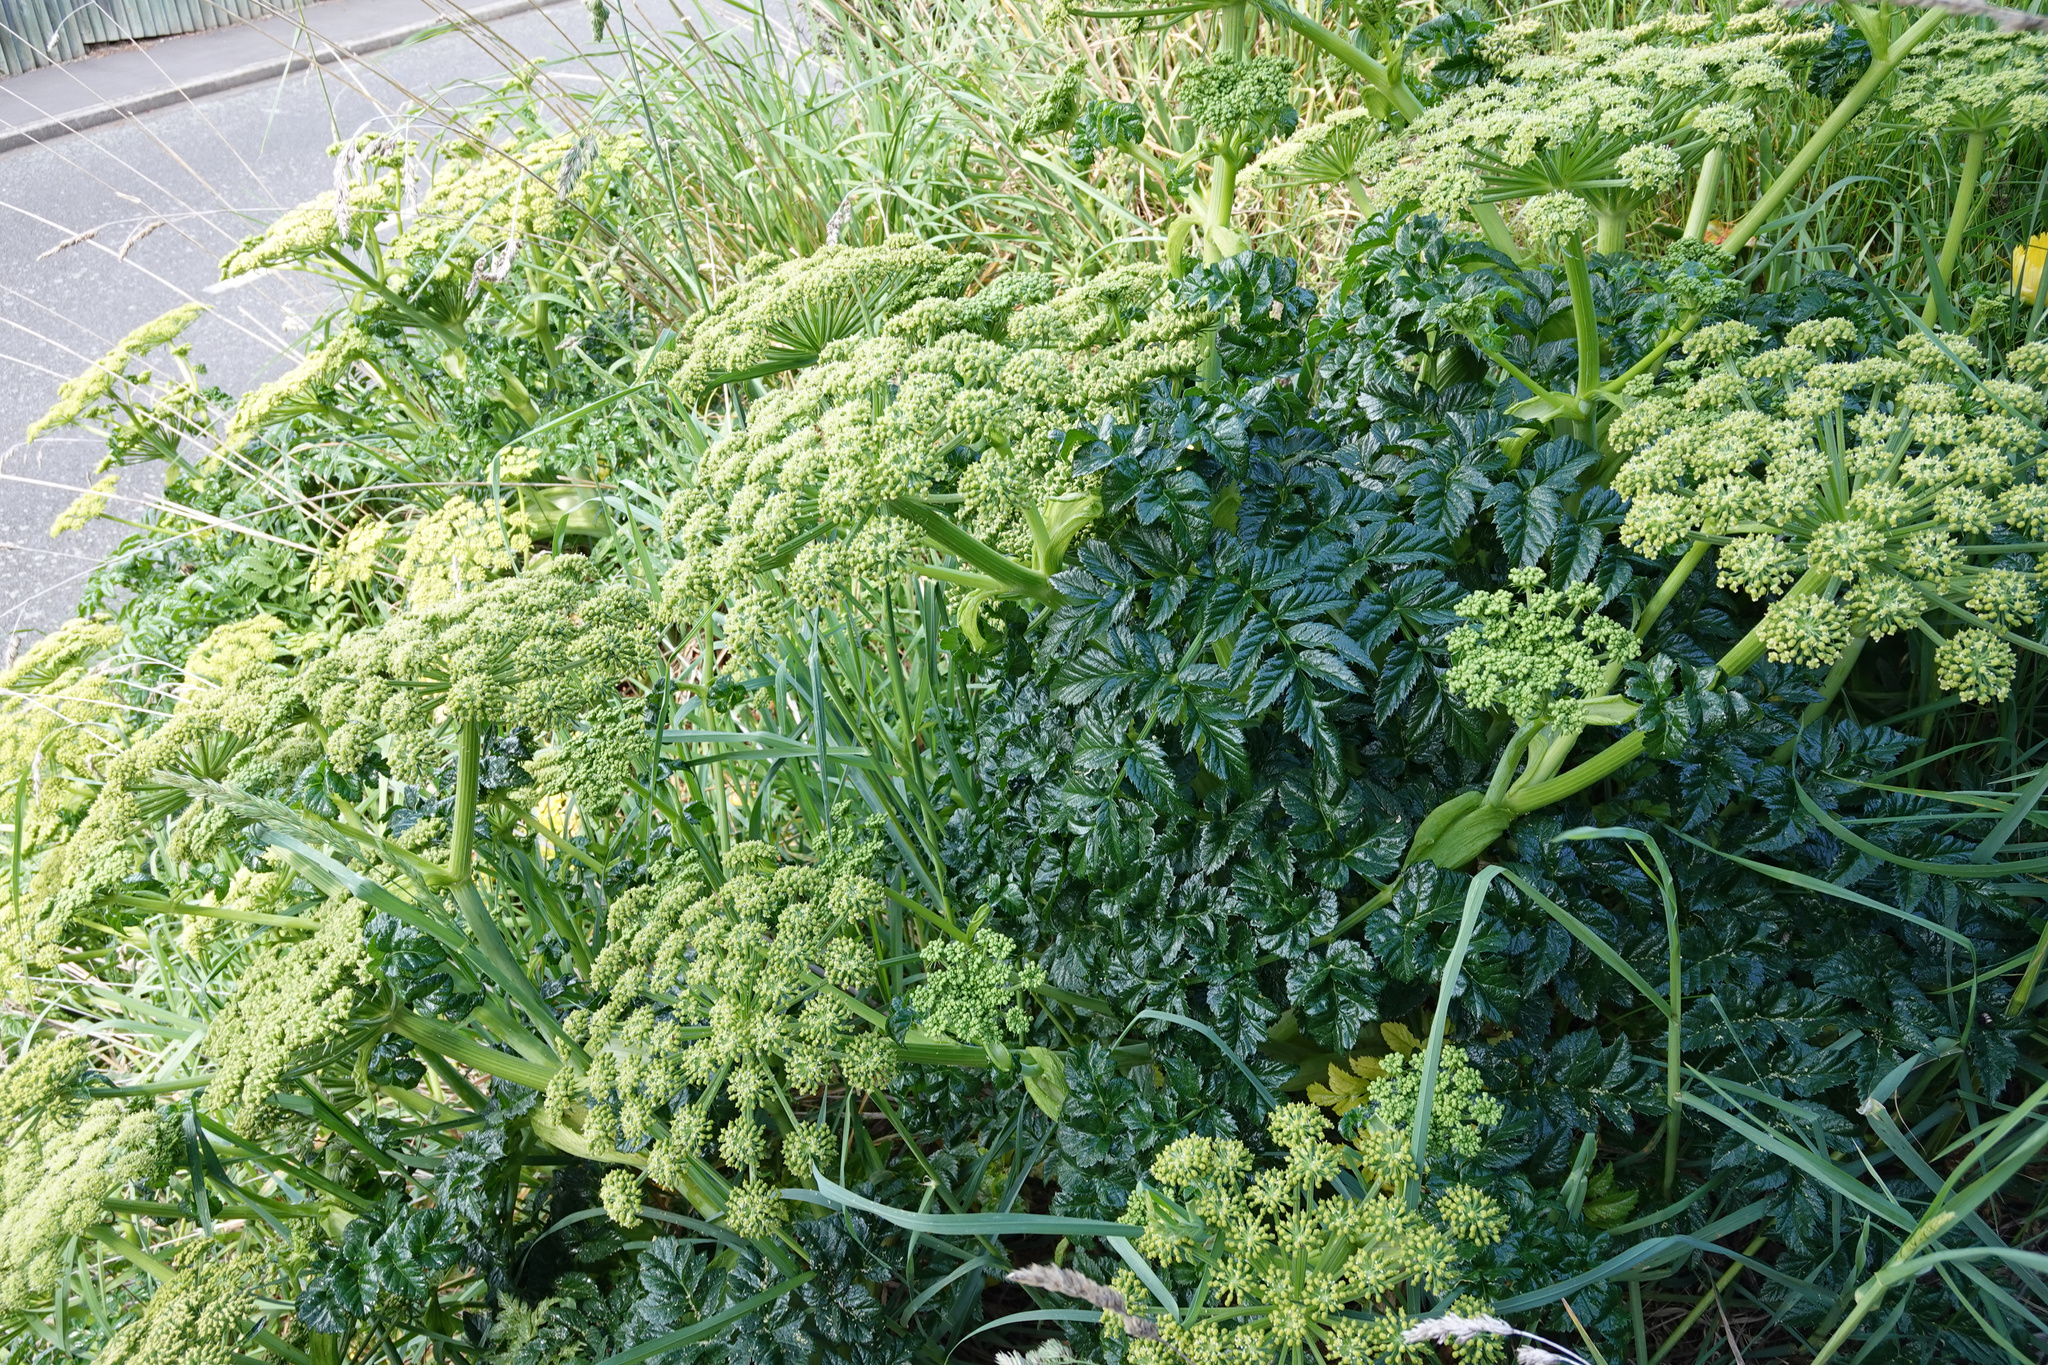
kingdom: Plantae
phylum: Tracheophyta
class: Magnoliopsida
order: Apiales
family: Apiaceae
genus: Angelica
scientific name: Angelica pachycarpa
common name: Portuguese angelica
